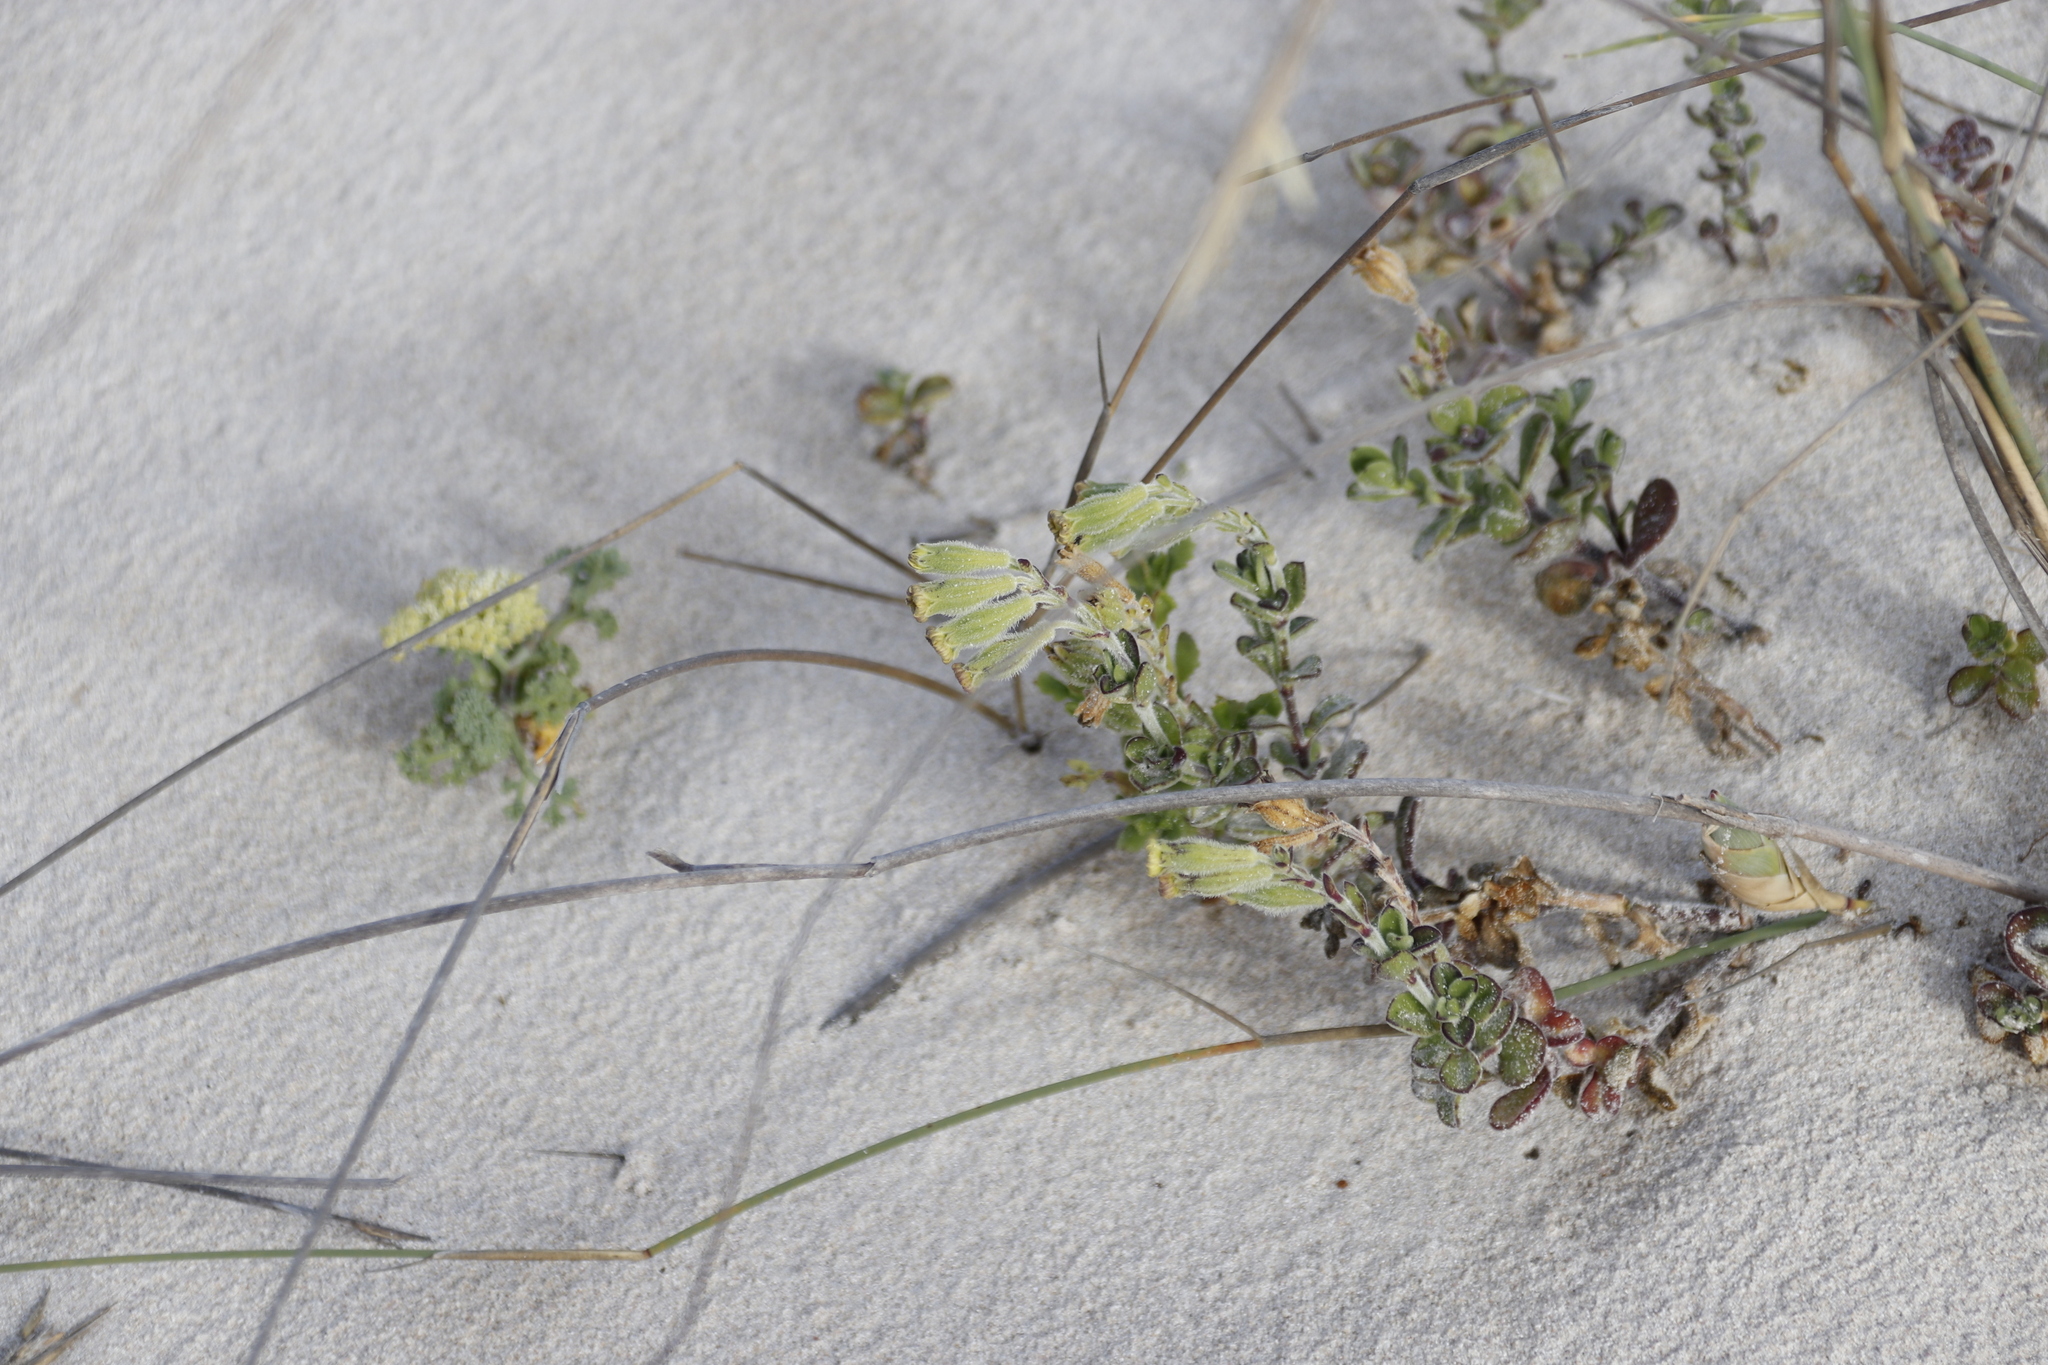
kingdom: Plantae
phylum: Tracheophyta
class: Magnoliopsida
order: Caryophyllales
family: Caryophyllaceae
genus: Silene
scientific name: Silene crassifolia
